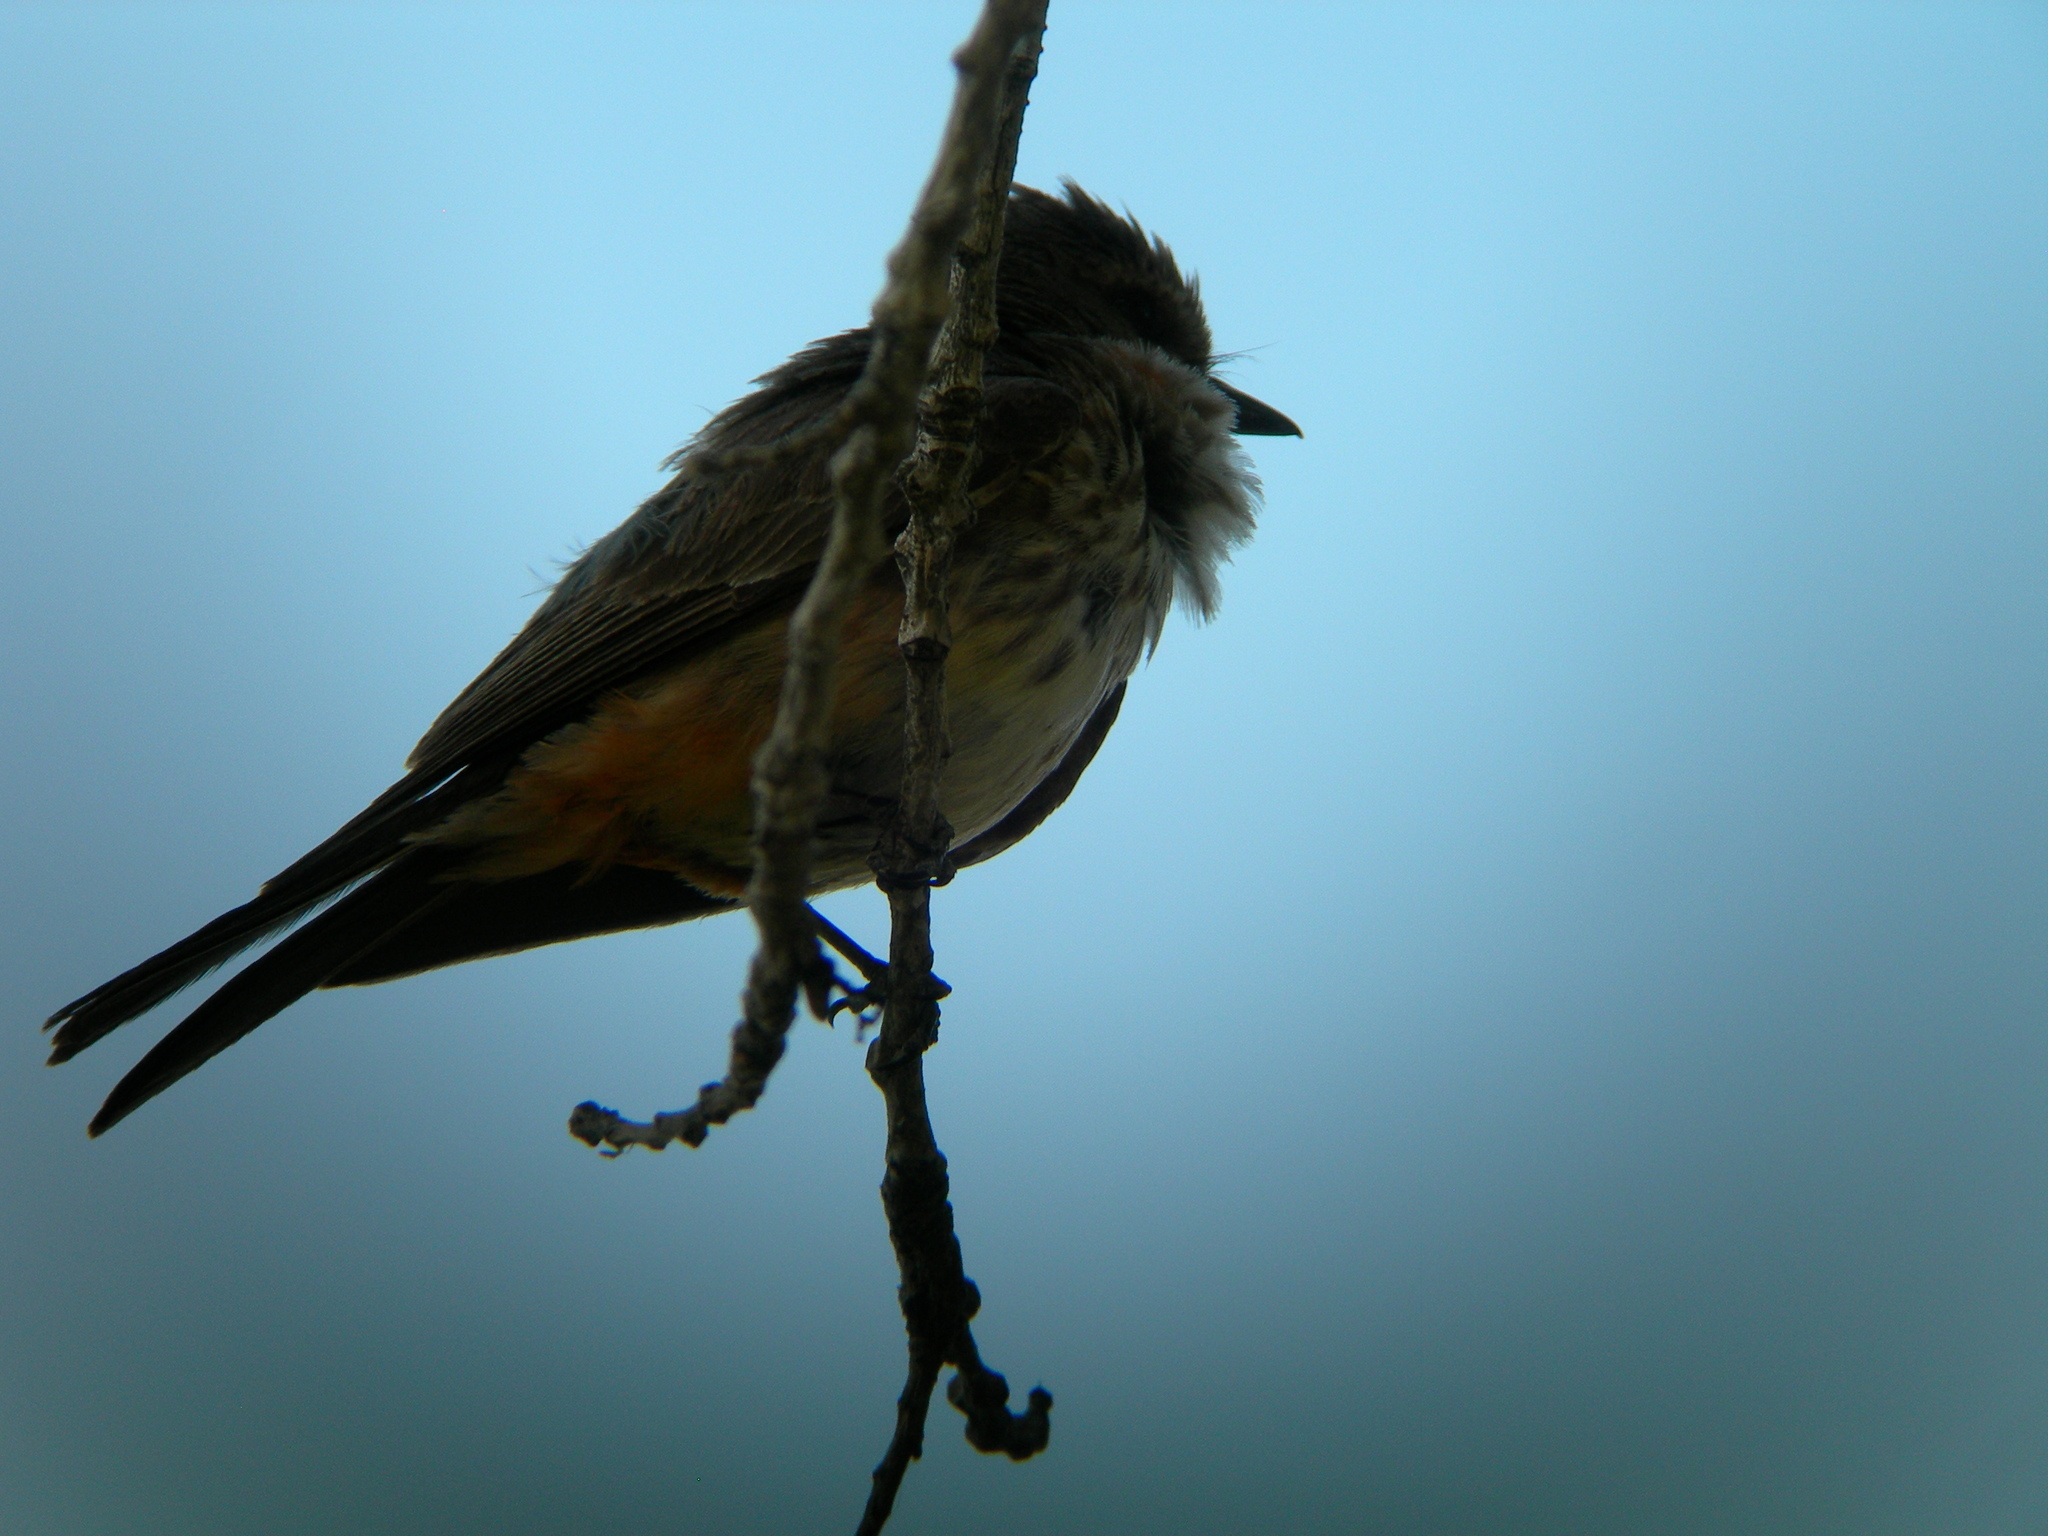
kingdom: Animalia
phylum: Chordata
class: Aves
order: Passeriformes
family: Tyrannidae
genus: Pyrocephalus
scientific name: Pyrocephalus rubinus
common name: Vermilion flycatcher
